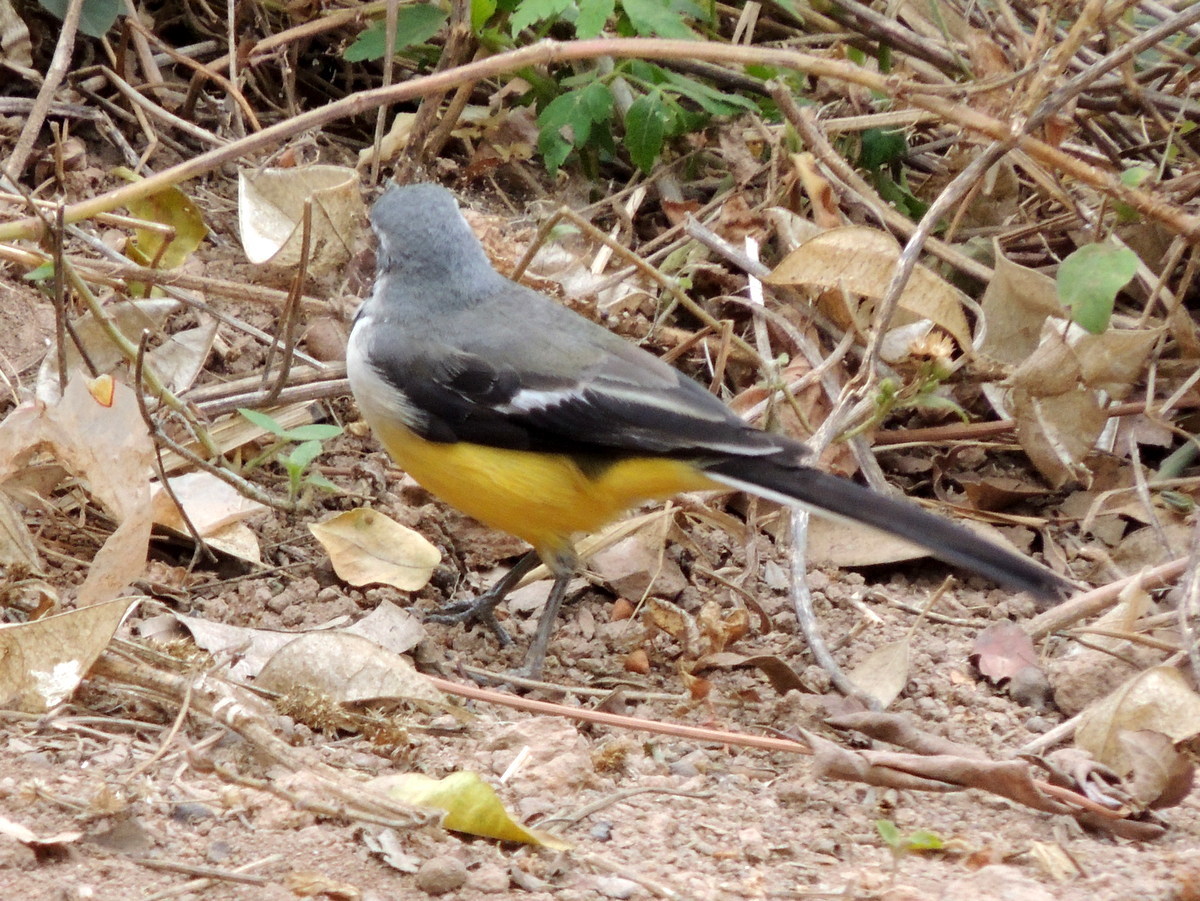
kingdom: Animalia
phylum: Chordata
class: Aves
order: Passeriformes
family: Motacillidae
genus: Motacilla
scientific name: Motacilla flaviventris
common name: Madagascar wagtail
